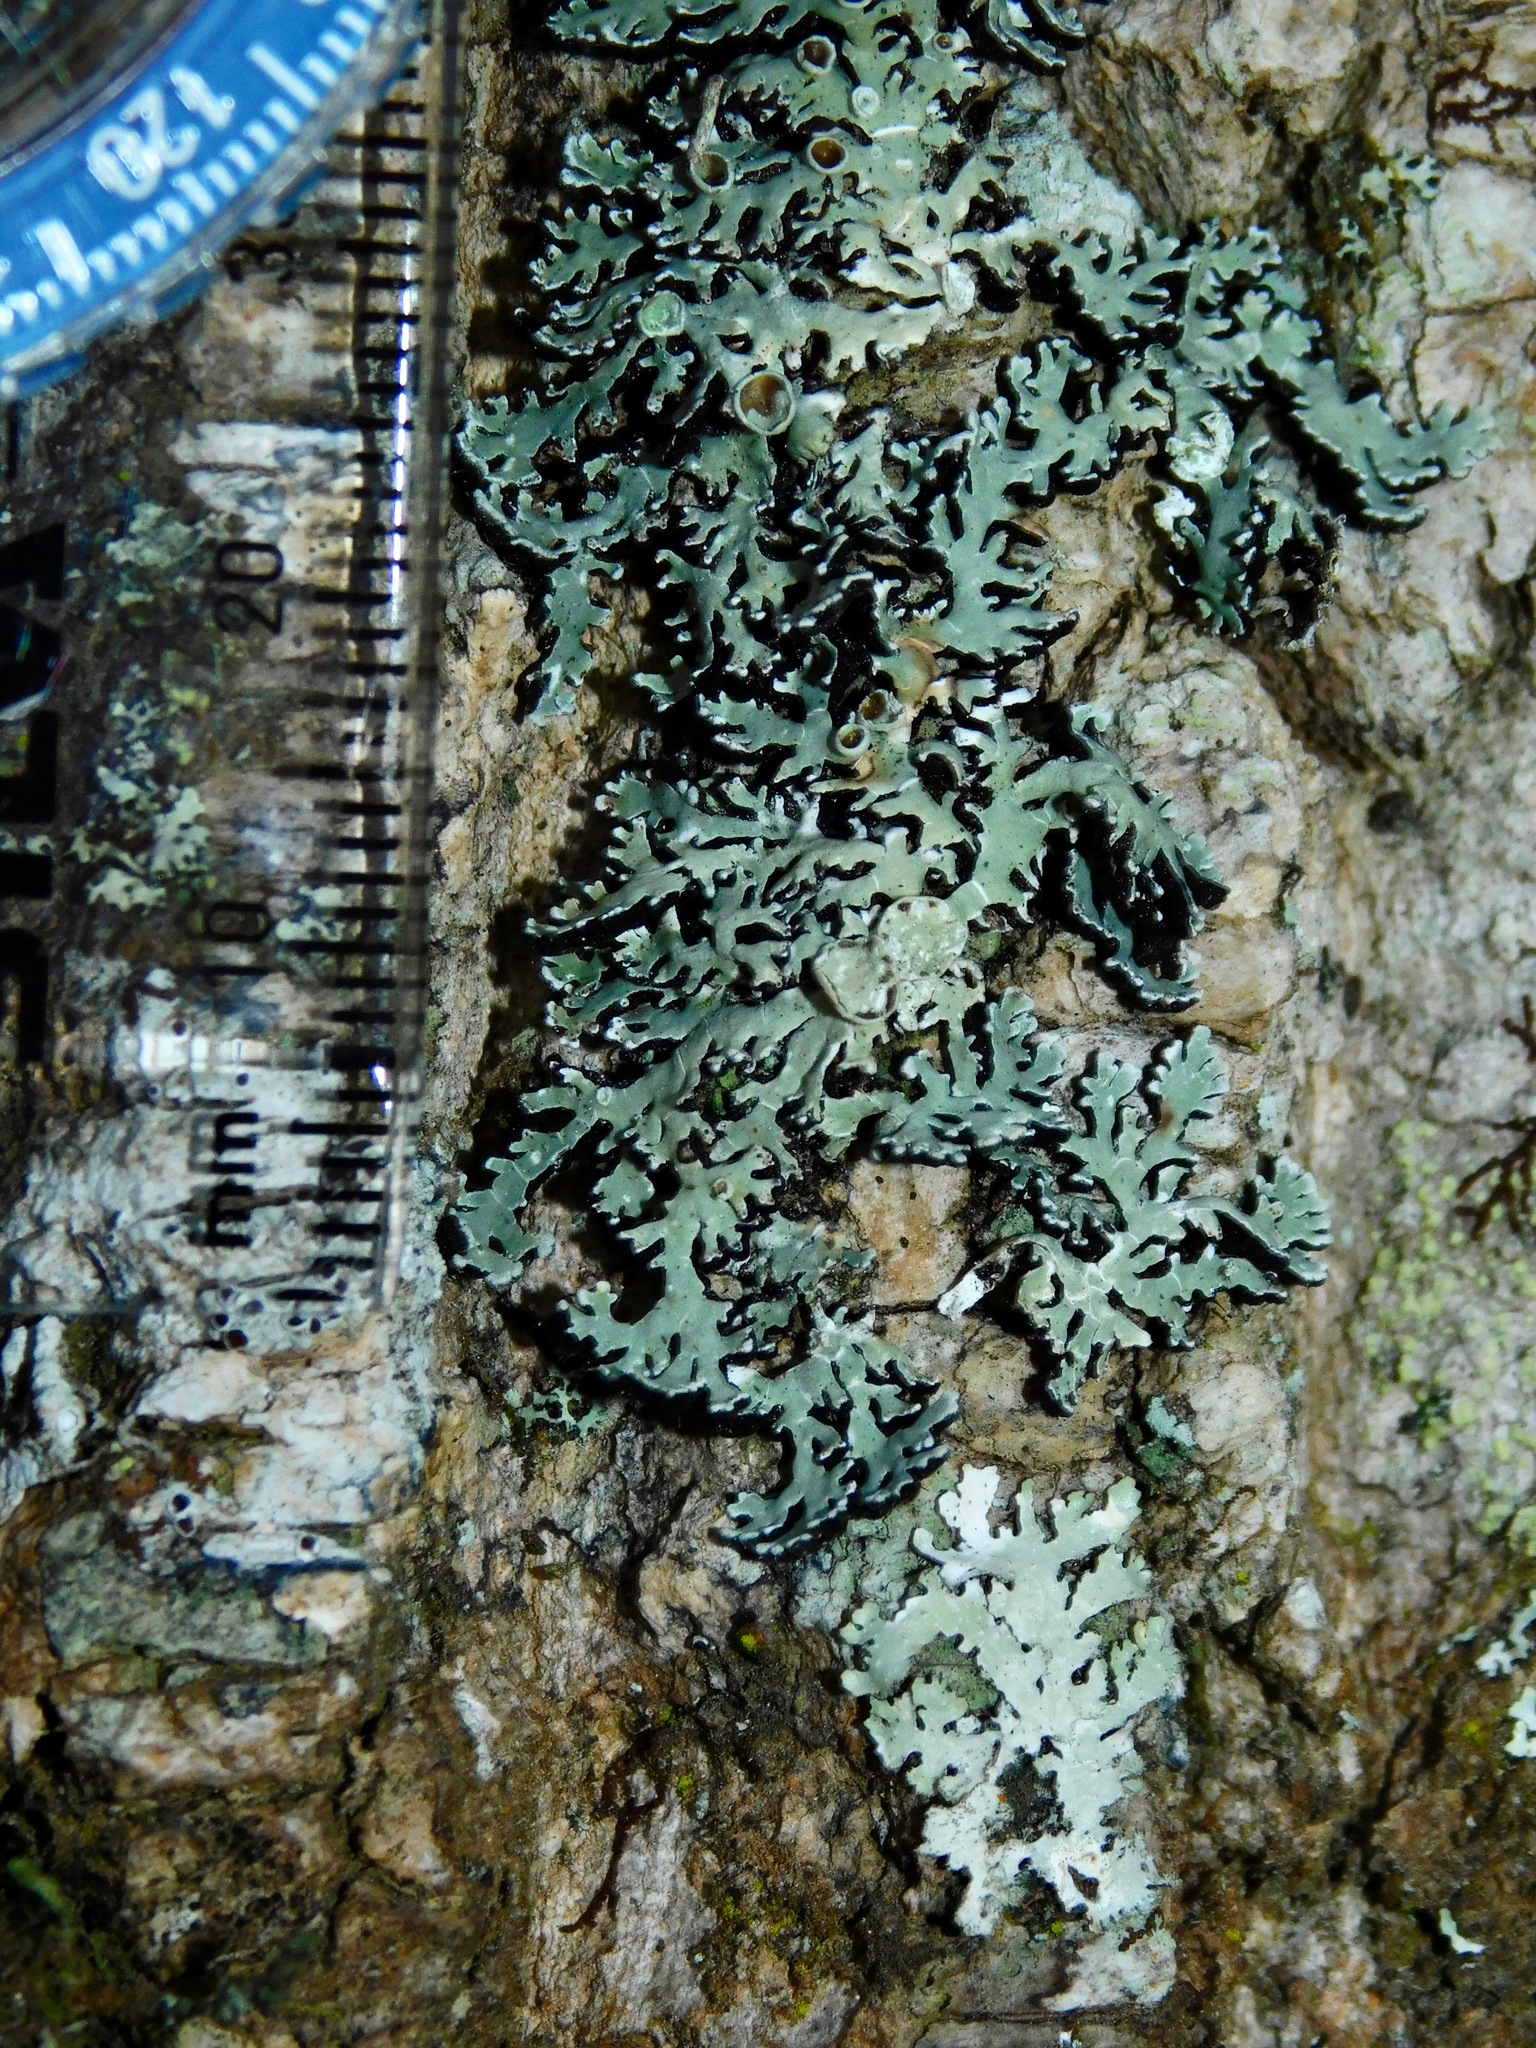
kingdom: Fungi
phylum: Ascomycota
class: Lecanoromycetes
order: Lecanorales
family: Parmeliaceae
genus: Anzia
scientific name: Anzia colpodes
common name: Black-foam lichen
